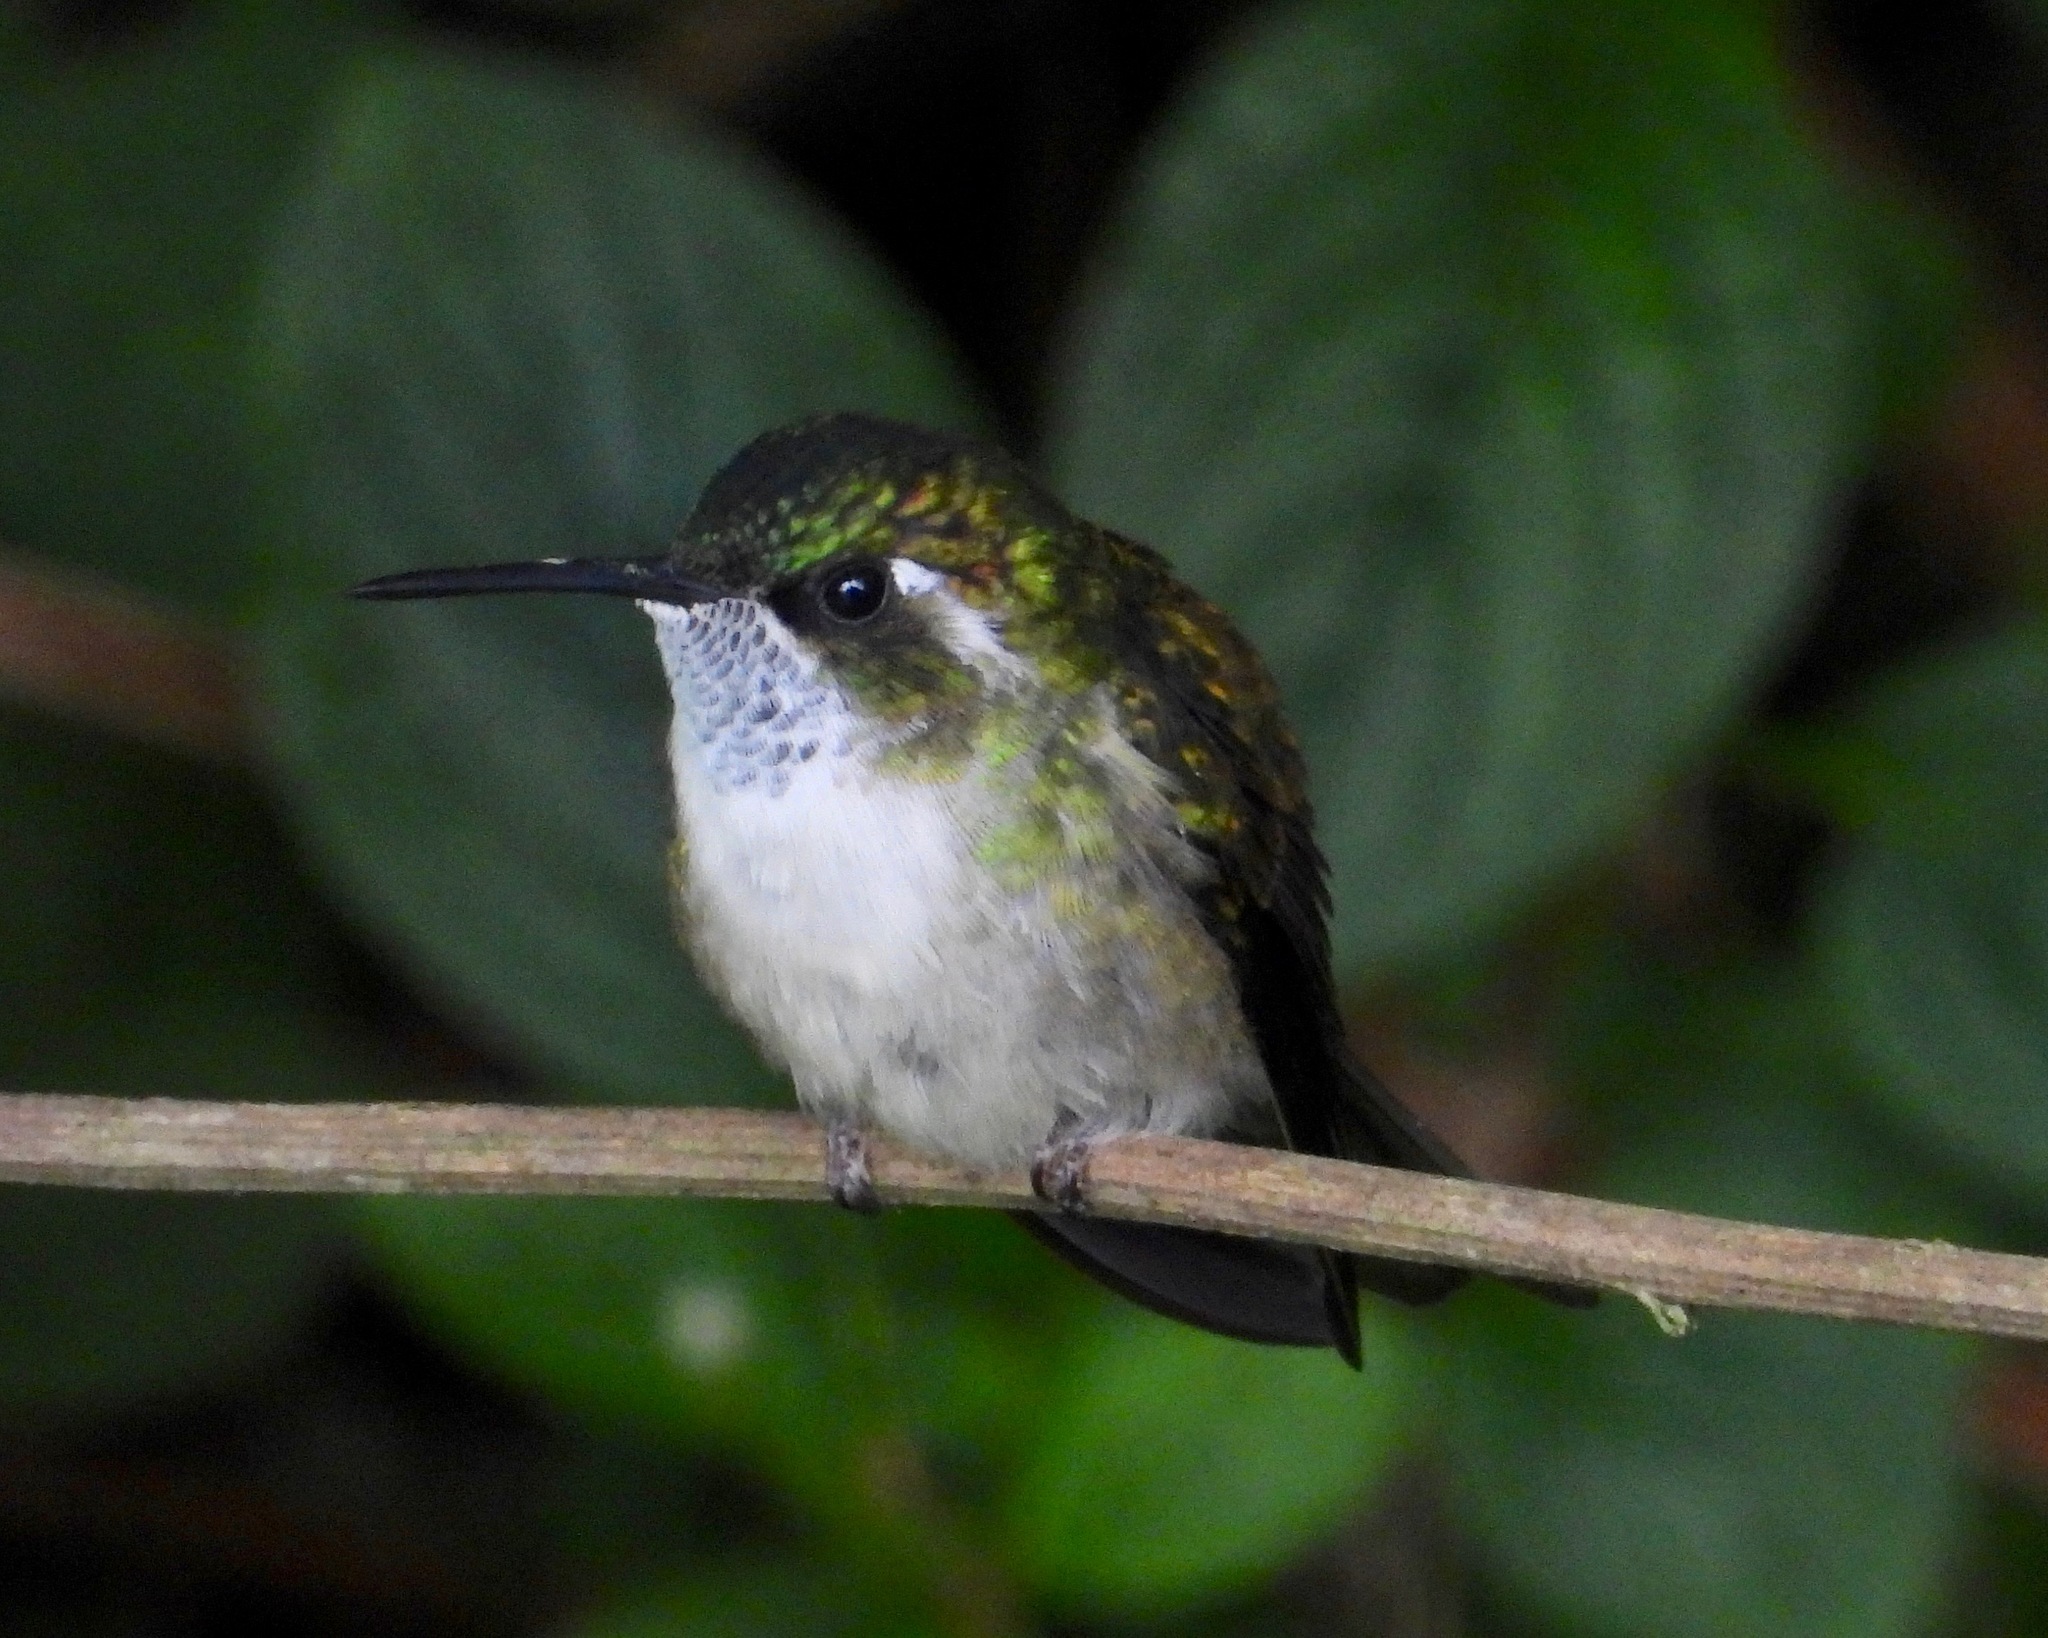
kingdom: Animalia
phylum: Chordata
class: Aves
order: Apodiformes
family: Trochilidae
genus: Lampornis
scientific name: Lampornis viridipallens
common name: Green-throated mountain-gem
